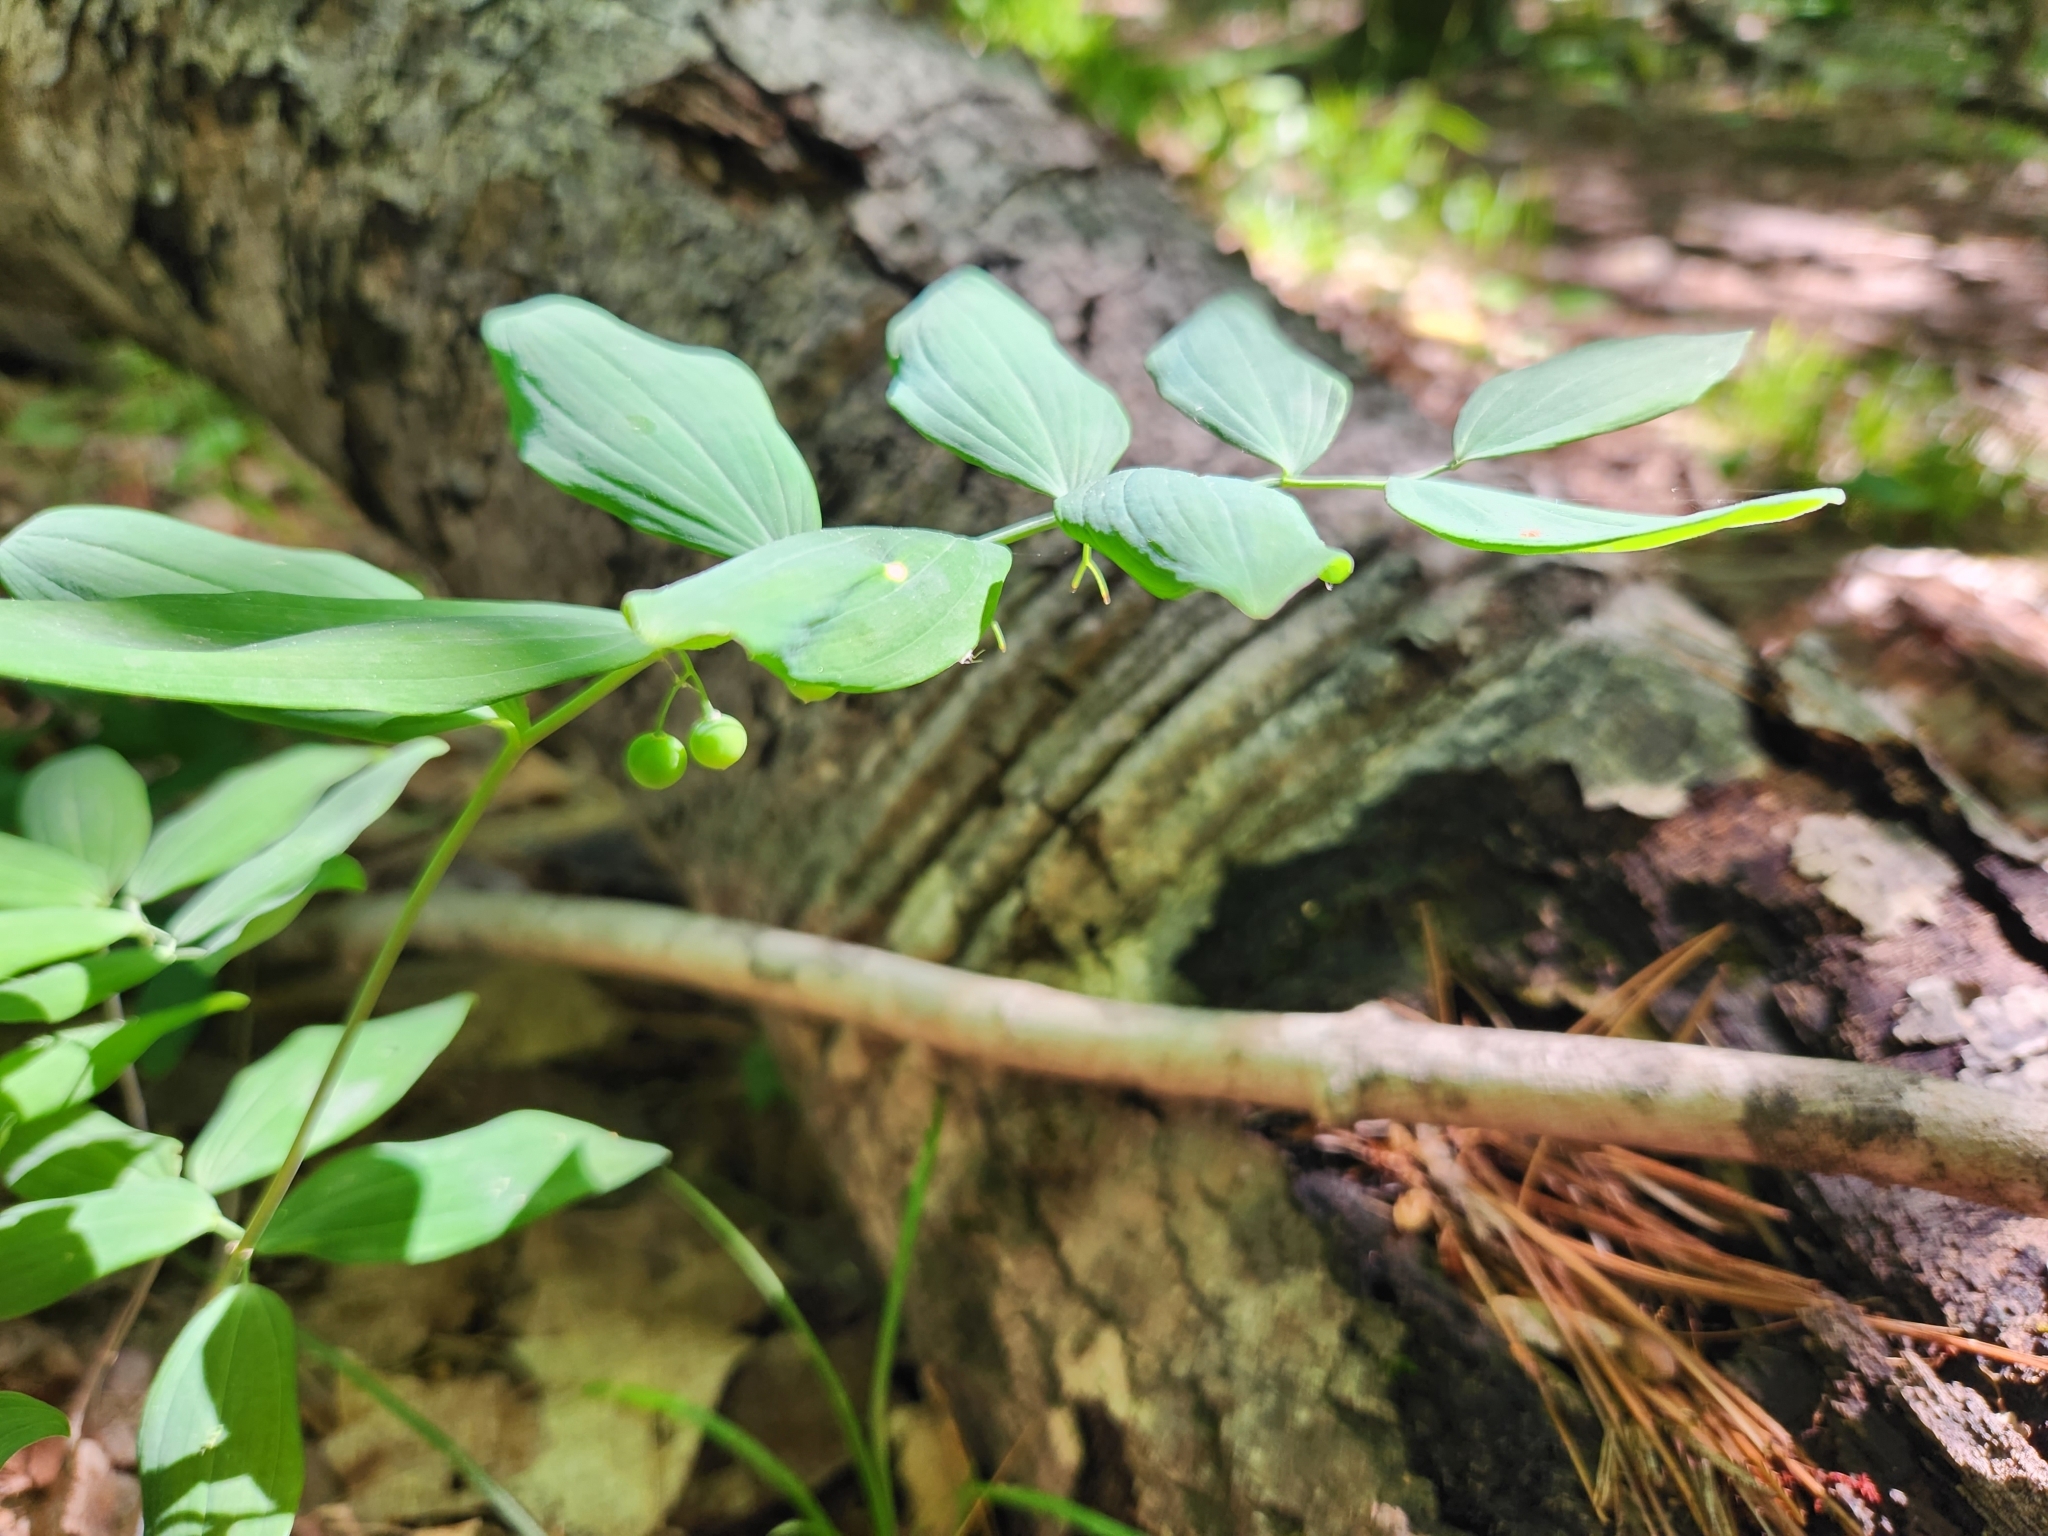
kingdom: Plantae
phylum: Tracheophyta
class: Liliopsida
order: Asparagales
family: Asparagaceae
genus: Polygonatum
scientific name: Polygonatum pubescens
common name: Downy solomon's seal
